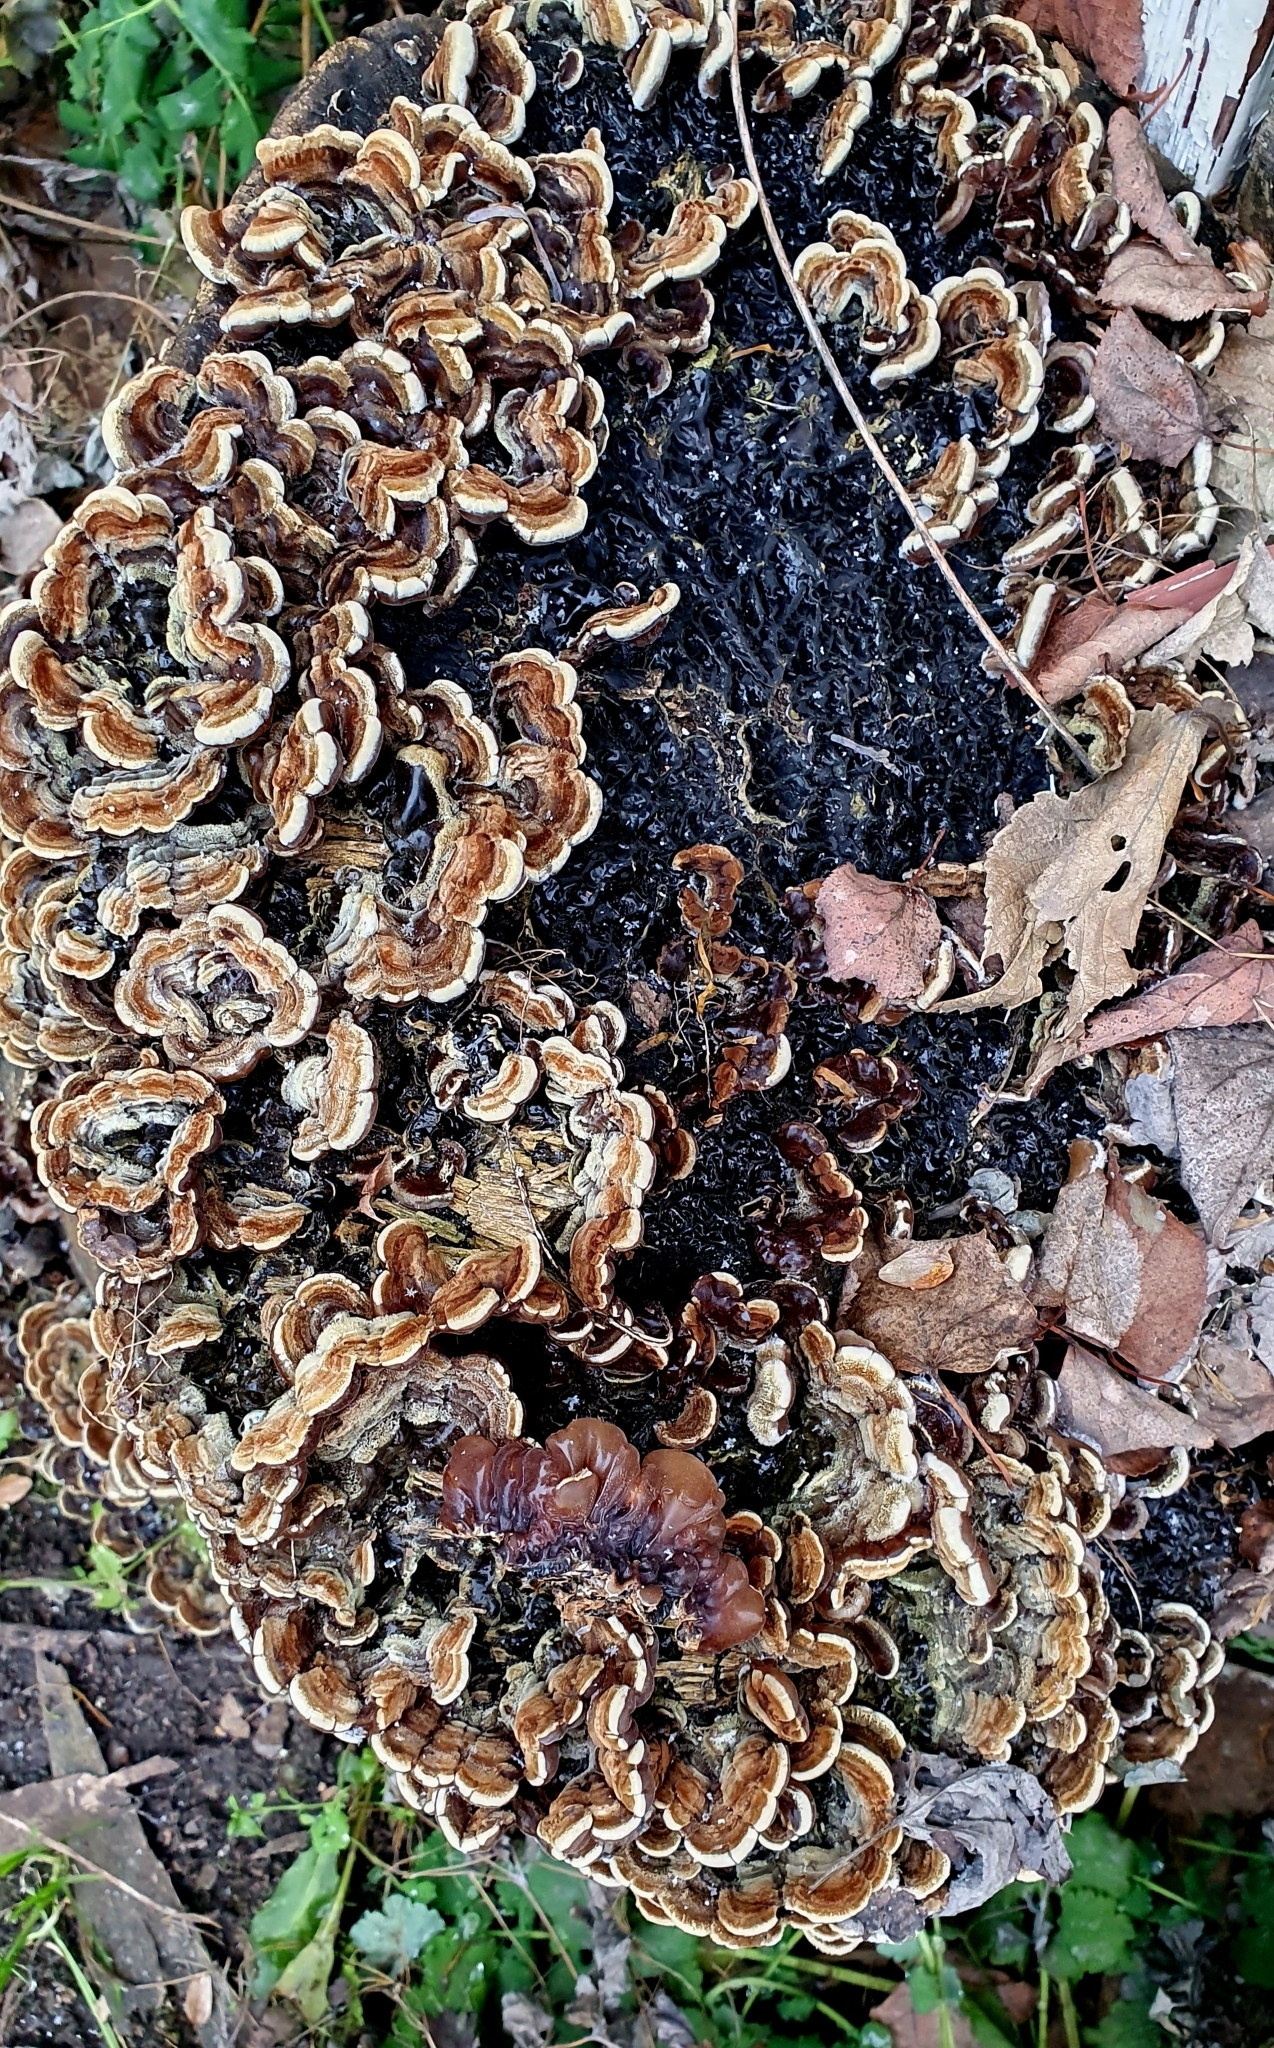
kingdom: Fungi
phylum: Basidiomycota
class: Agaricomycetes
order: Auriculariales
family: Auriculariaceae
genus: Auricularia
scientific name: Auricularia mesenterica
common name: Tripe fungus
